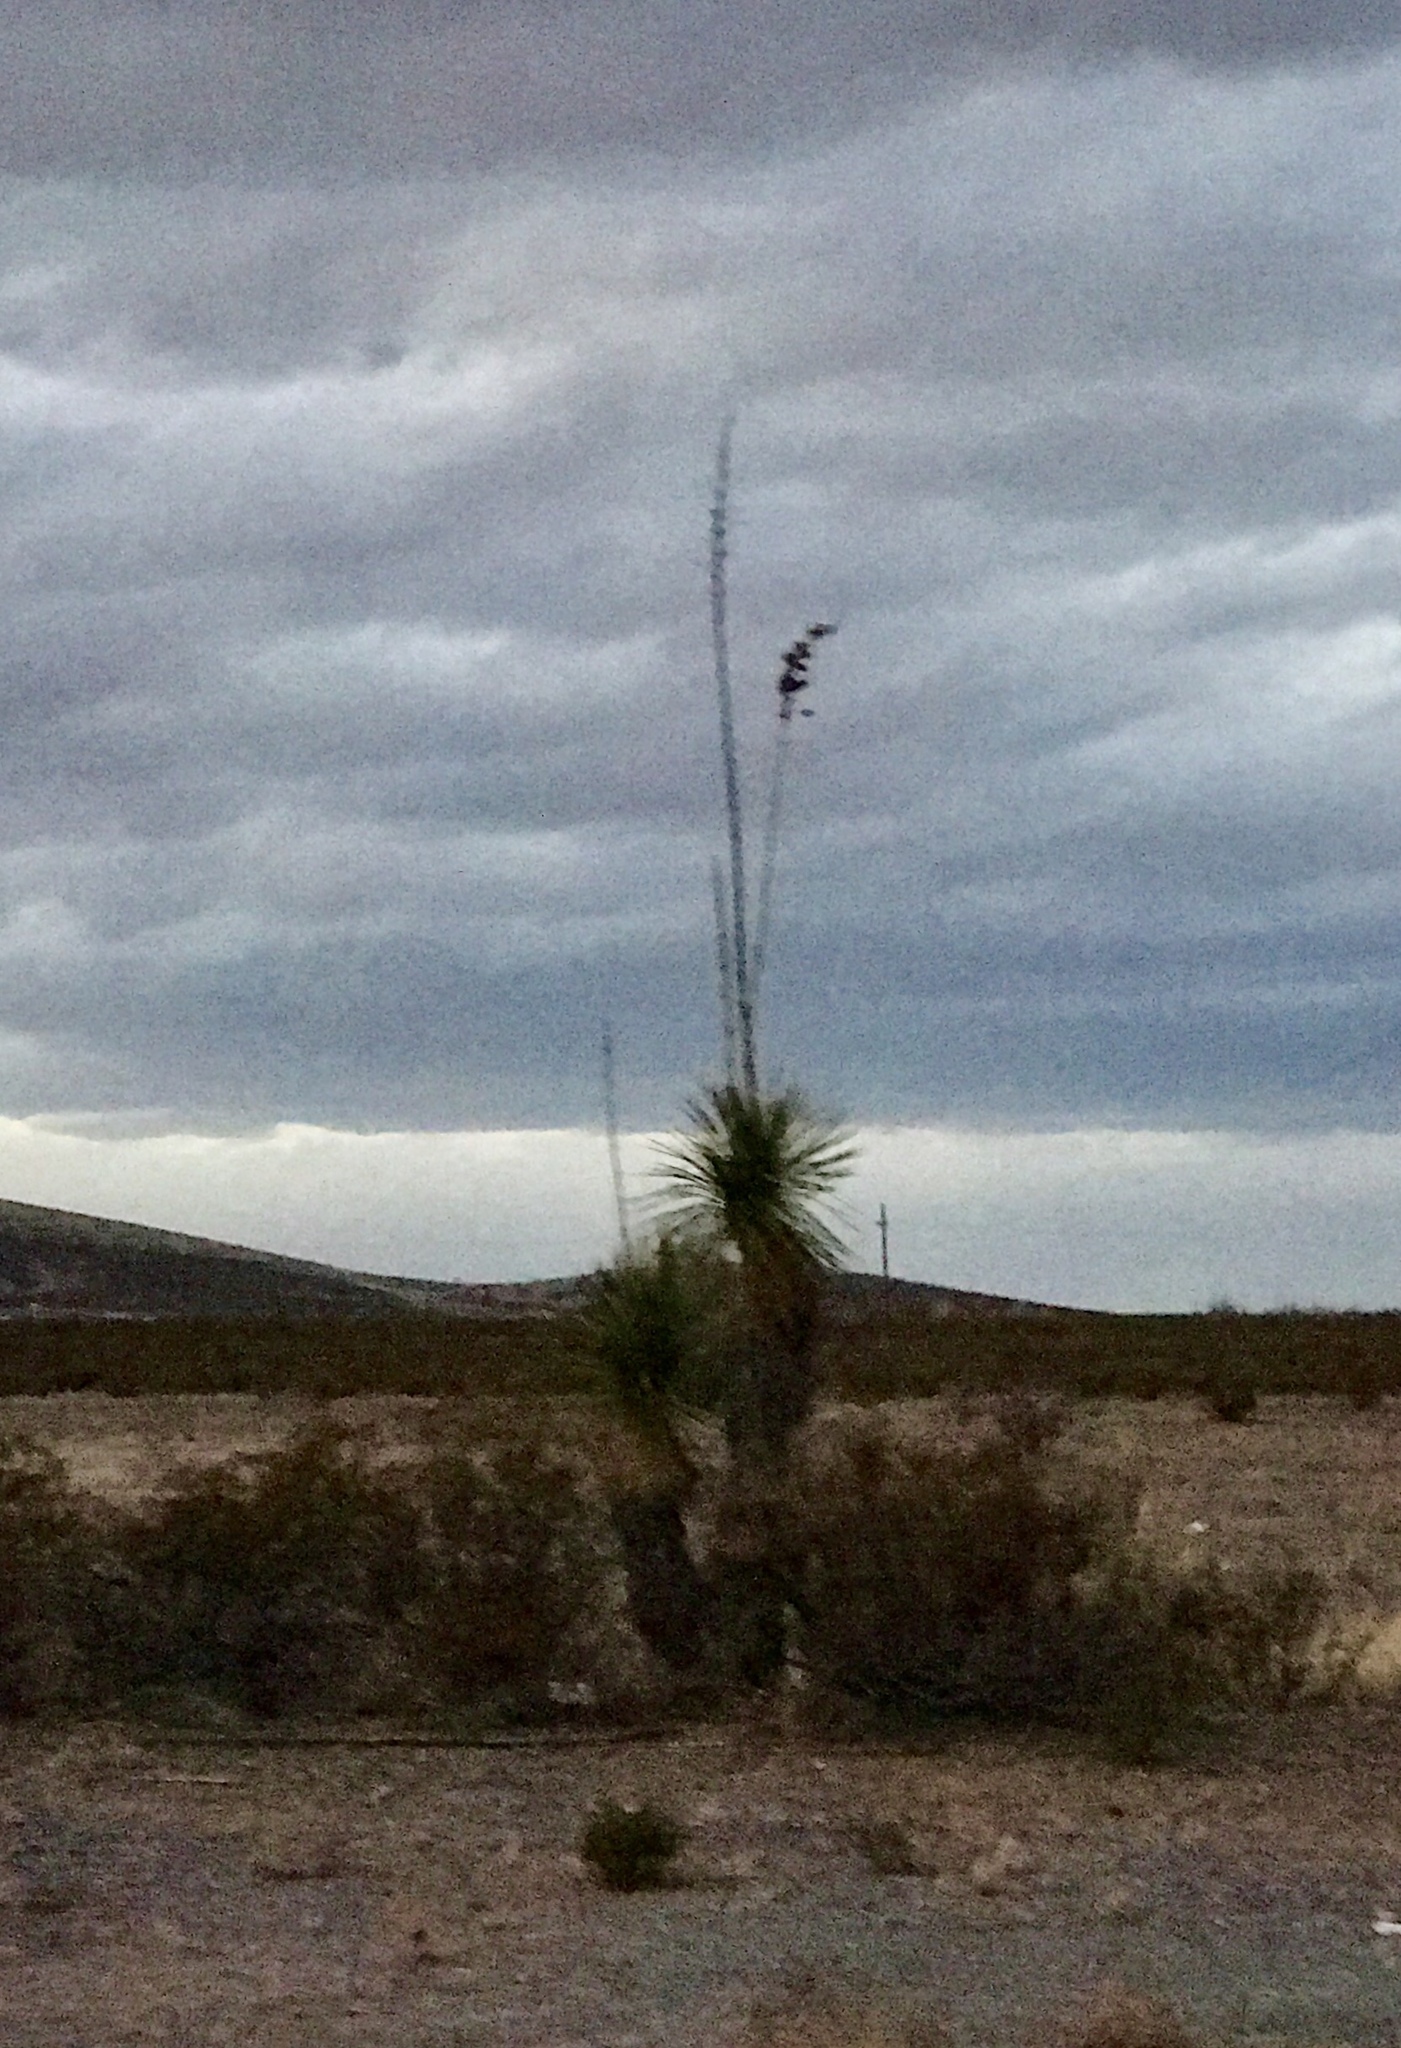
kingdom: Plantae
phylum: Tracheophyta
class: Liliopsida
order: Asparagales
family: Asparagaceae
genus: Yucca
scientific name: Yucca elata
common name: Palmella
